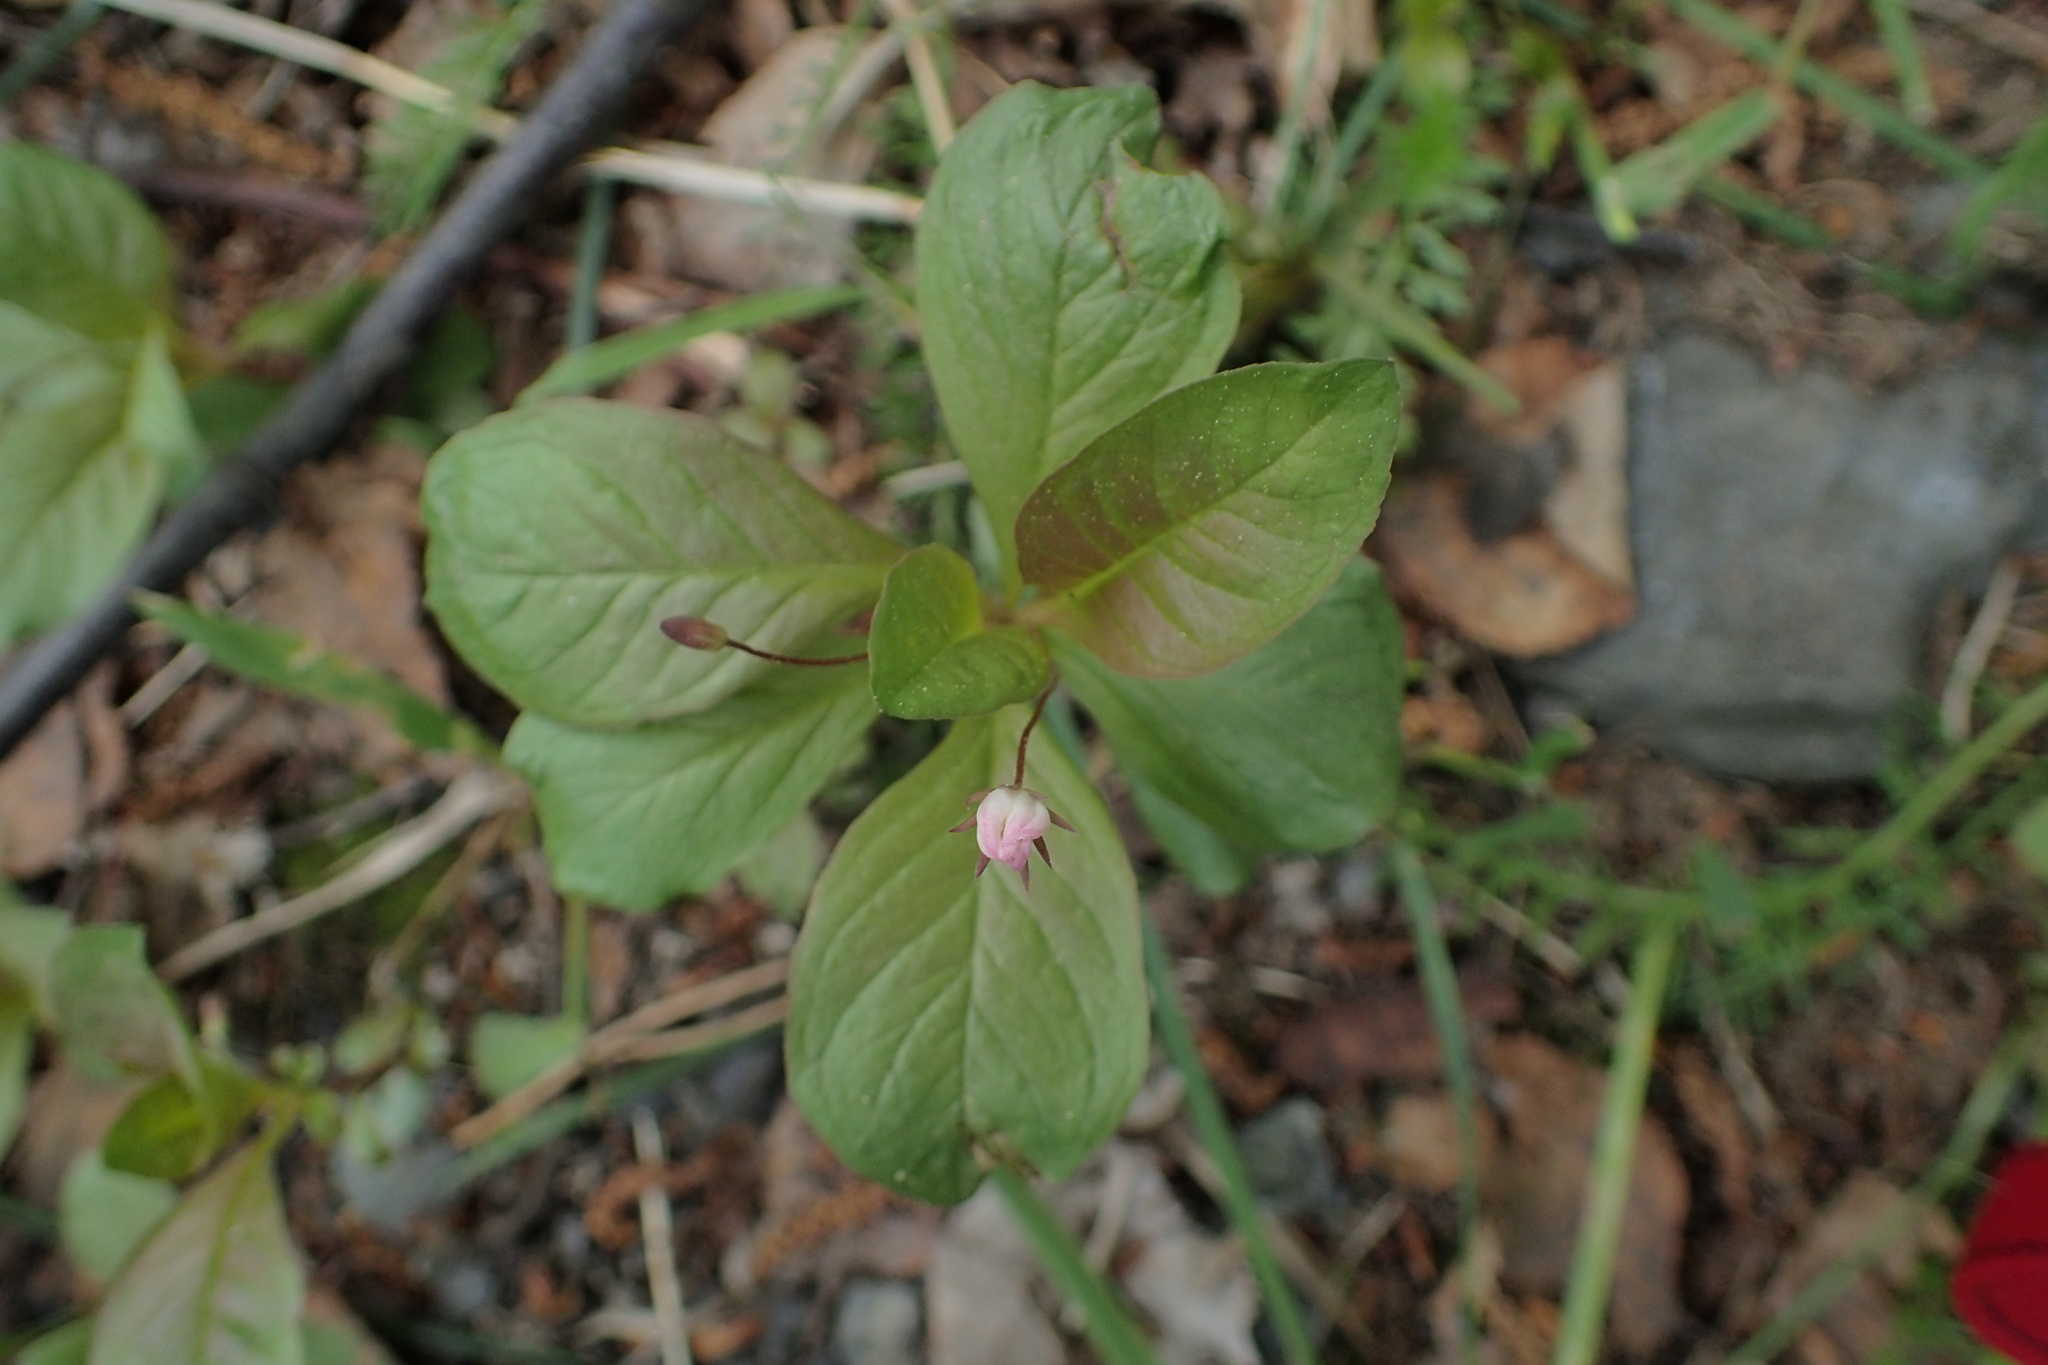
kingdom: Plantae
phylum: Tracheophyta
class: Magnoliopsida
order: Ericales
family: Primulaceae
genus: Lysimachia
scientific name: Lysimachia europaea
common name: Arctic starflower
